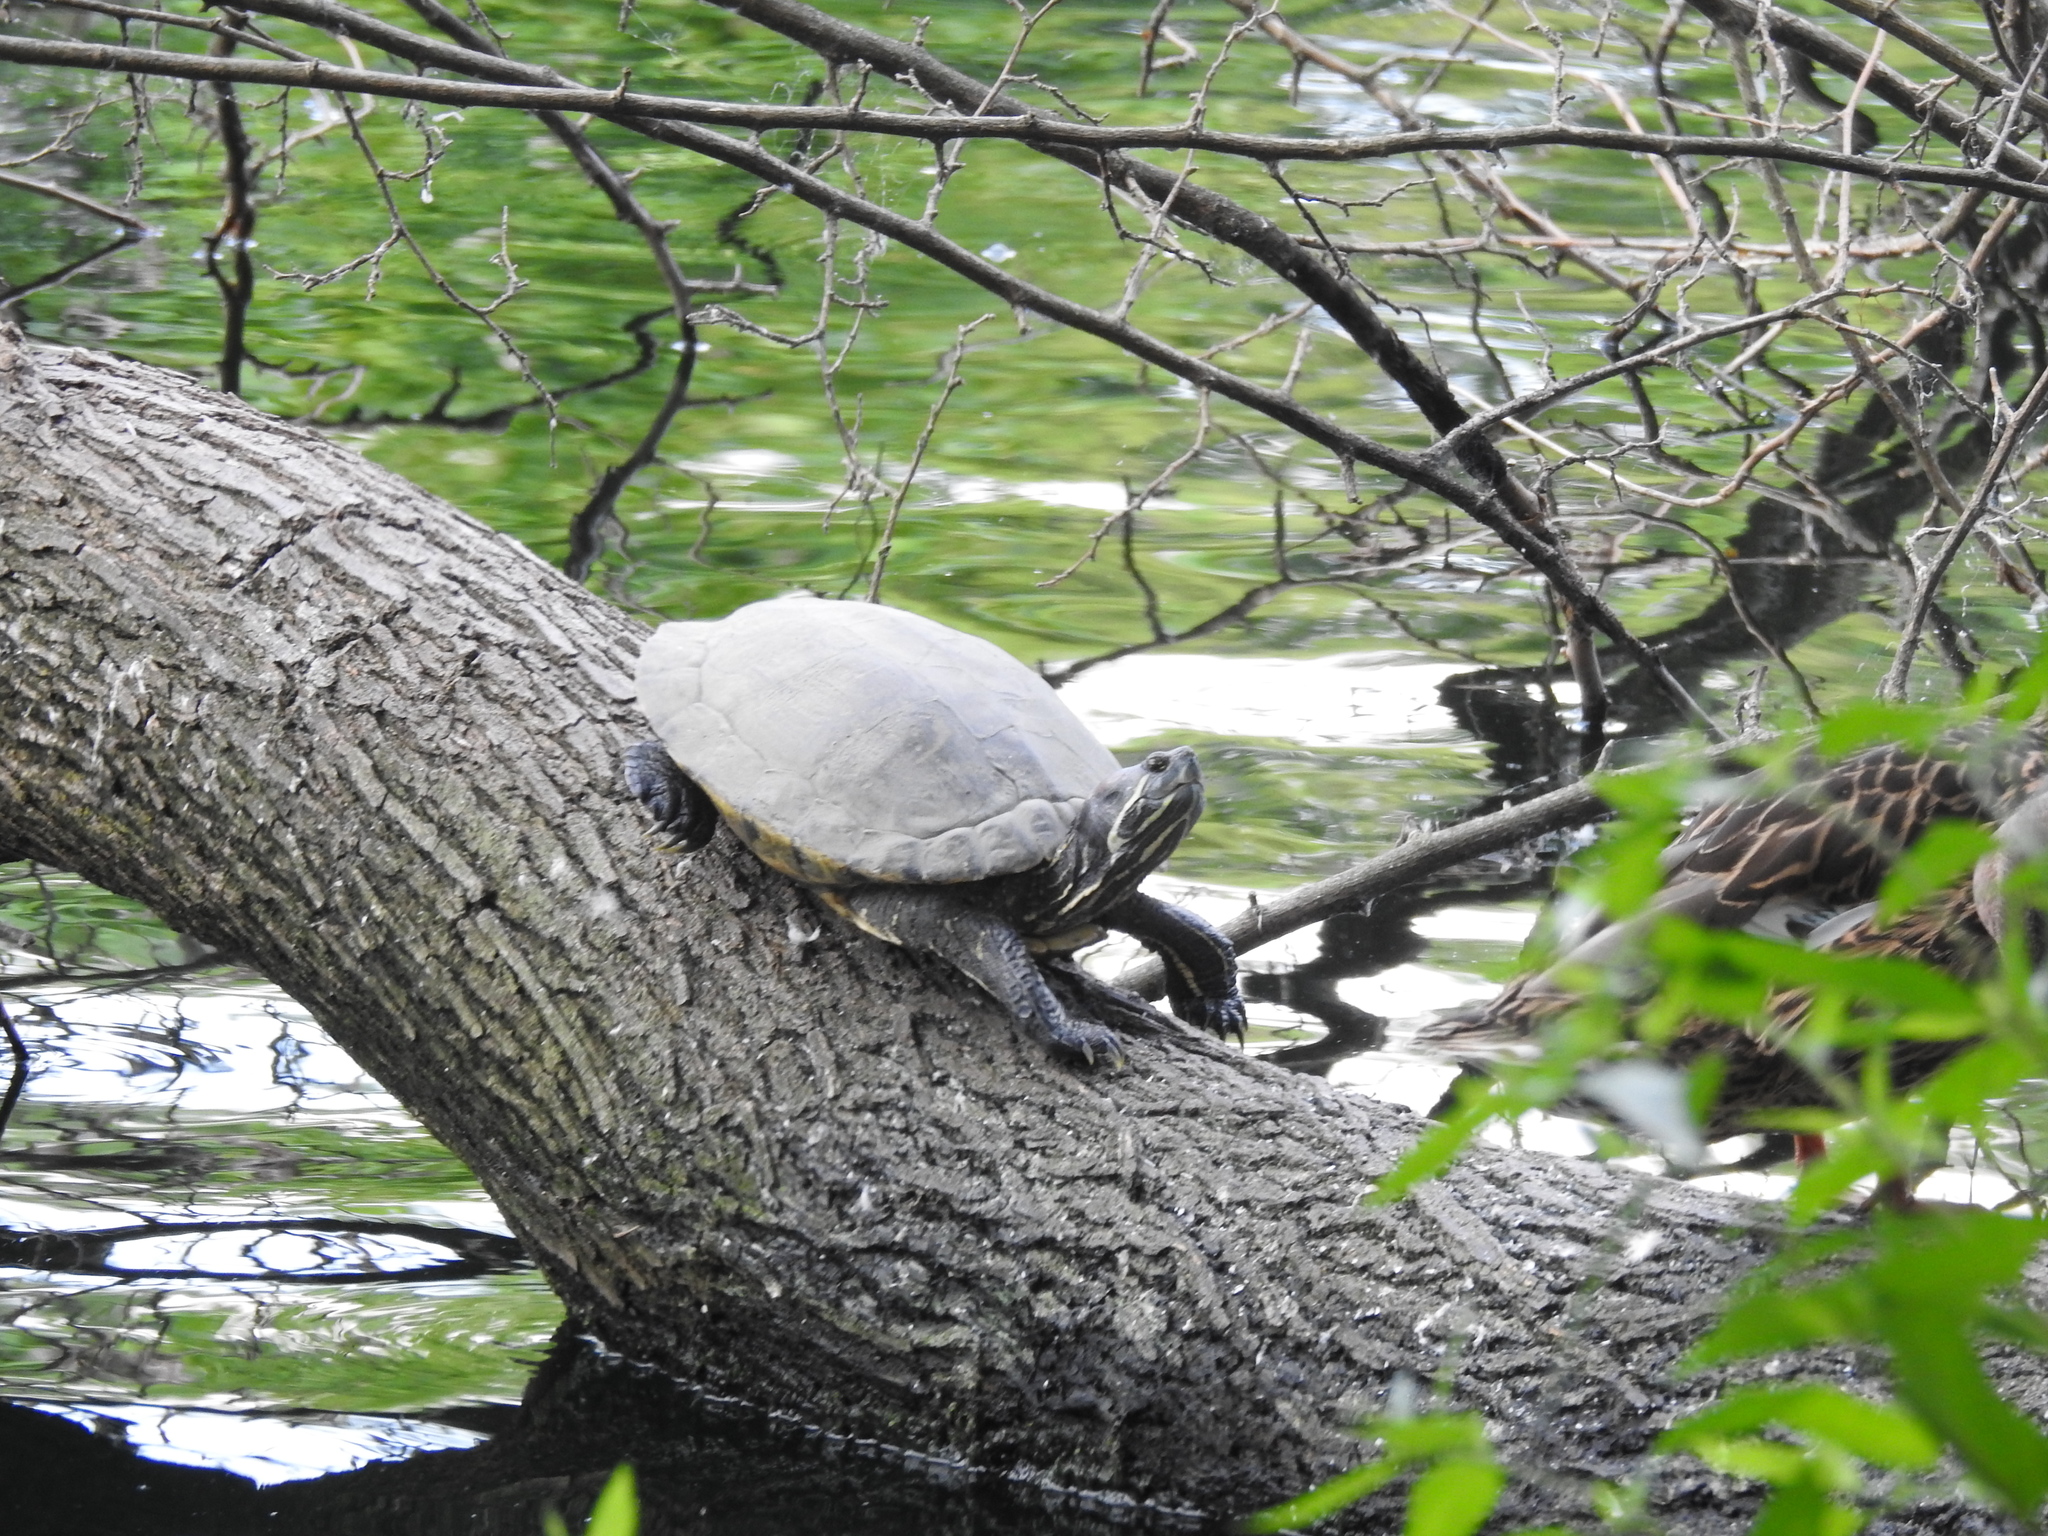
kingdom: Animalia
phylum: Chordata
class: Testudines
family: Emydidae
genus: Trachemys
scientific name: Trachemys scripta
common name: Slider
